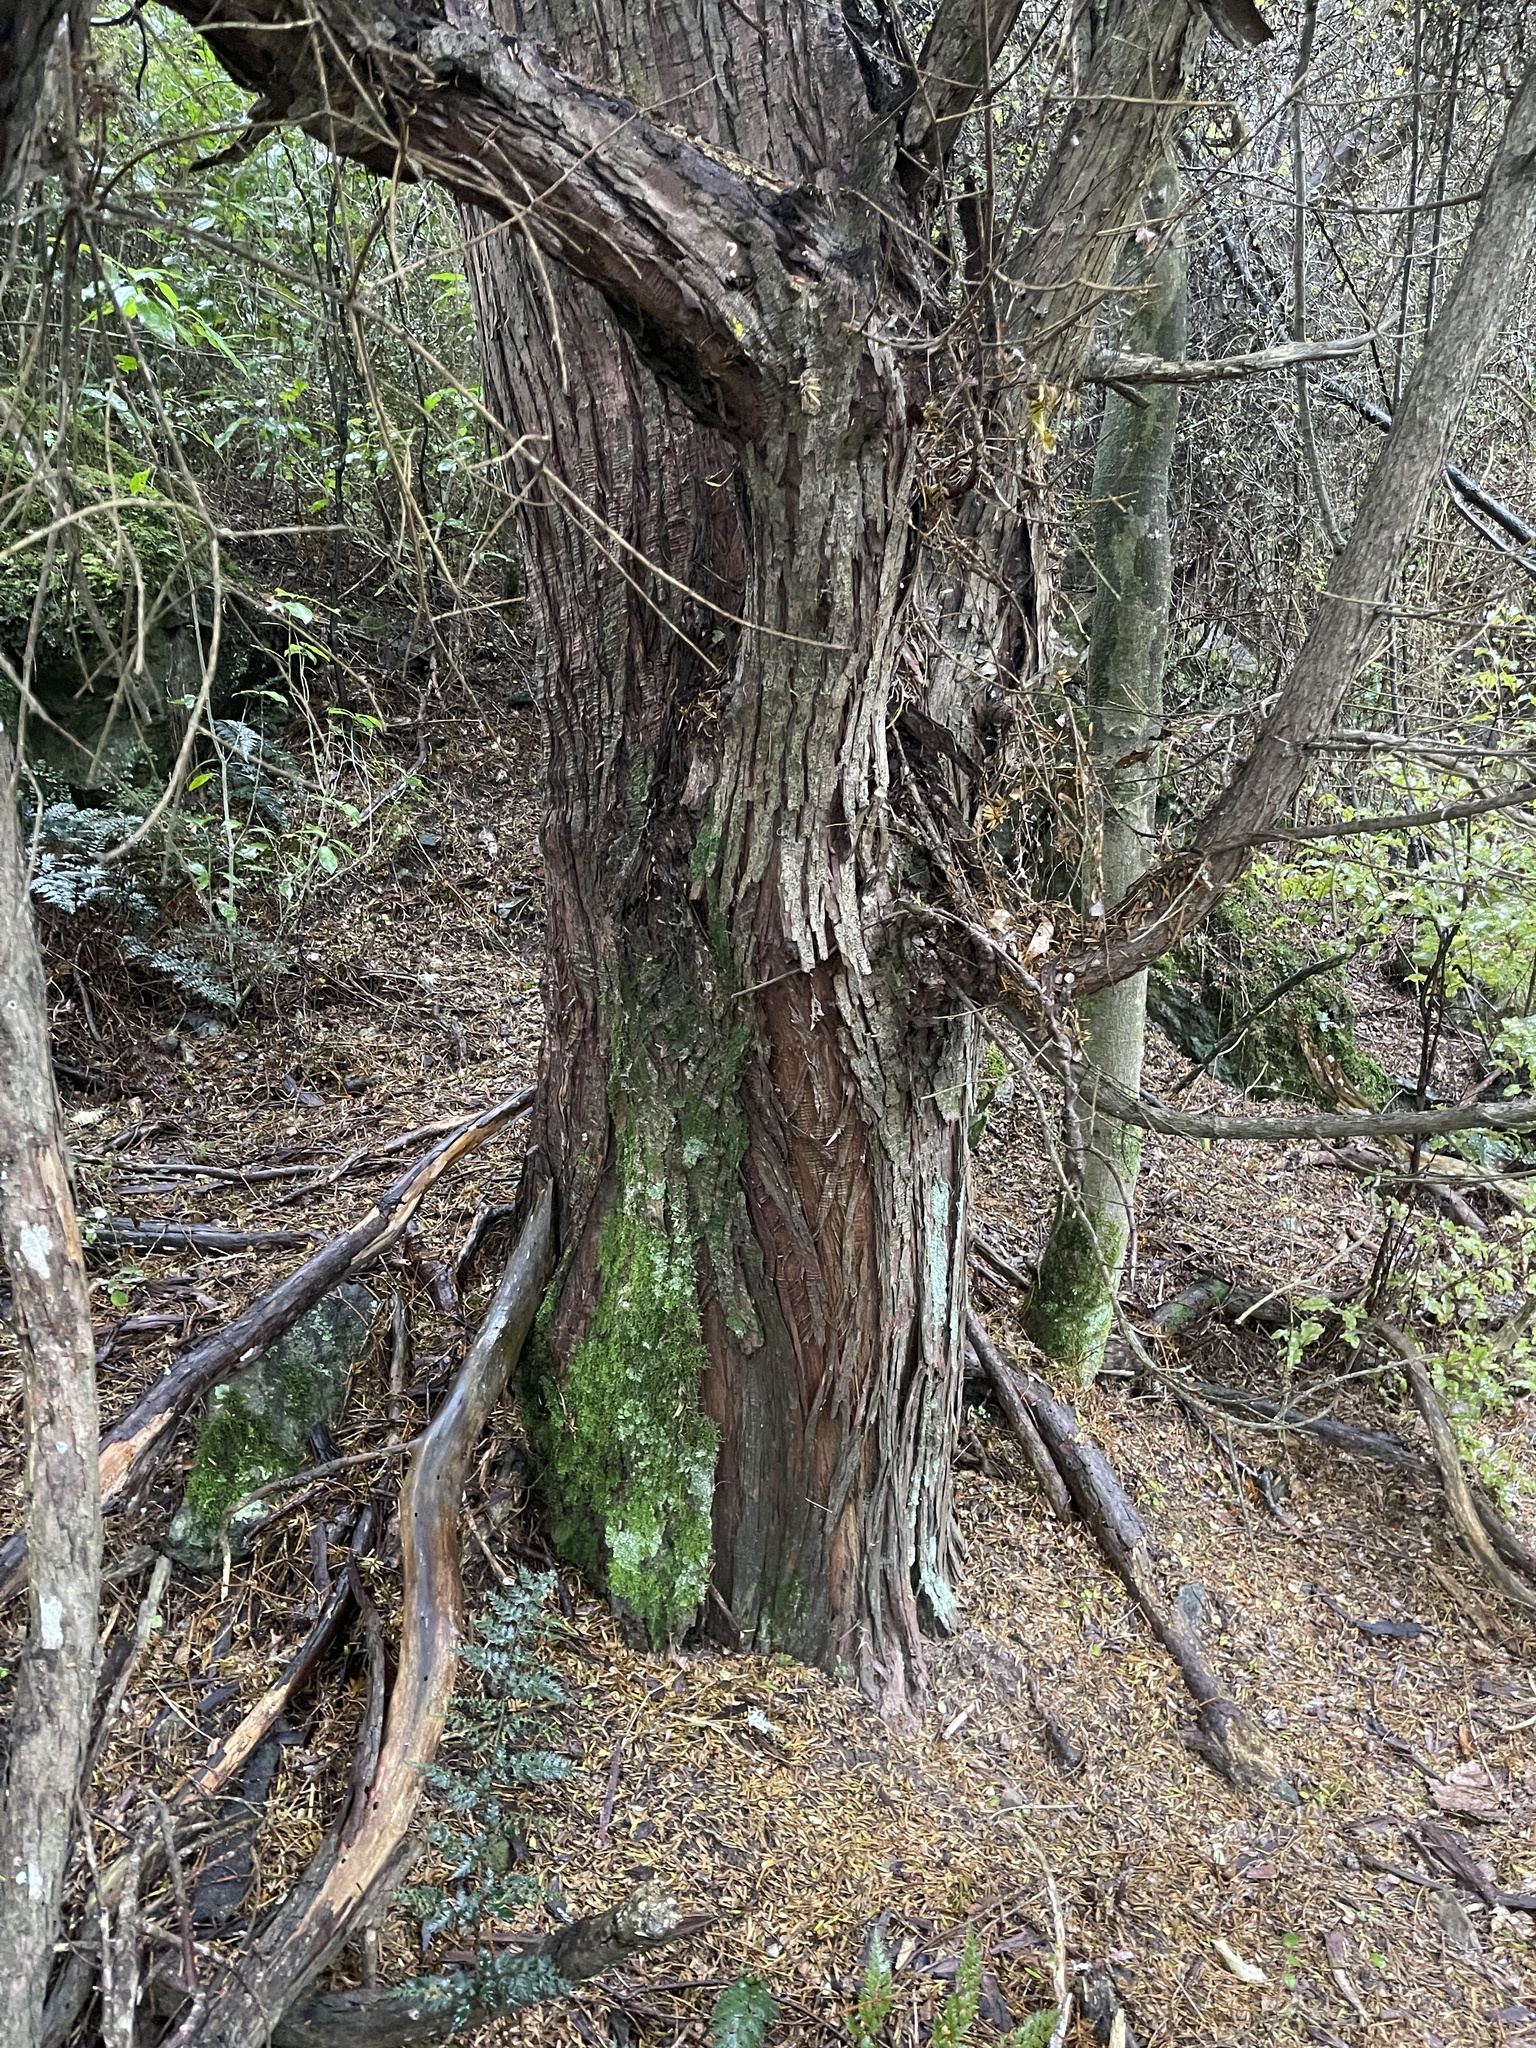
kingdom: Plantae
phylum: Tracheophyta
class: Pinopsida
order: Pinales
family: Podocarpaceae
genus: Podocarpus
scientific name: Podocarpus totara
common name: Totara
